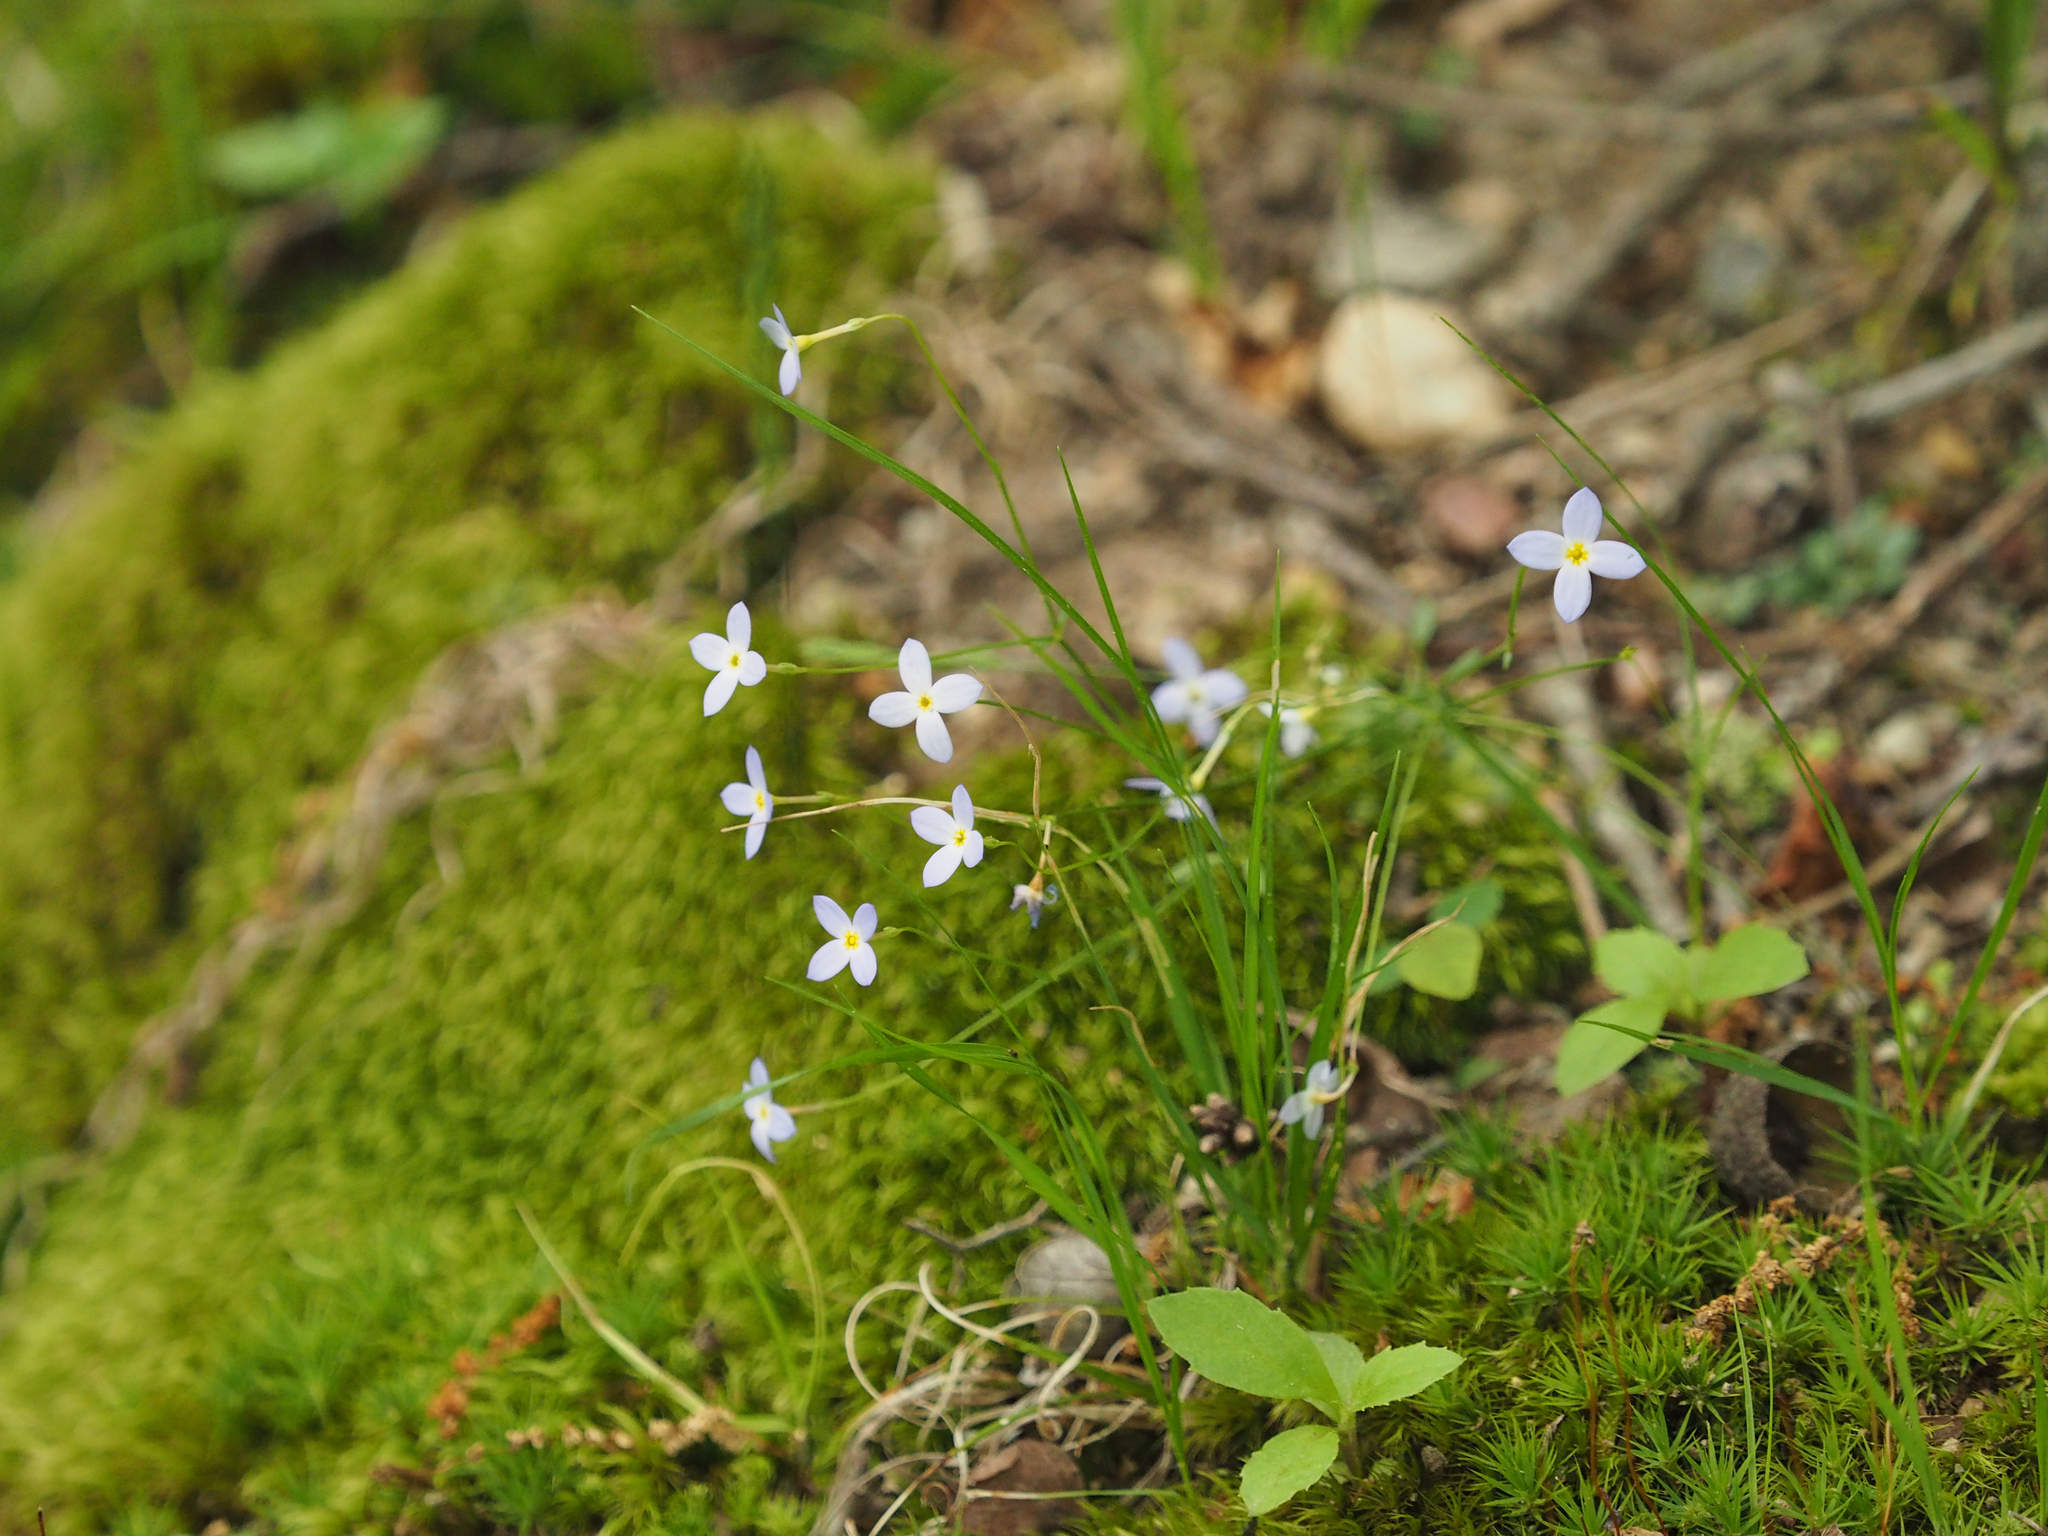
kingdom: Plantae
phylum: Tracheophyta
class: Magnoliopsida
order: Gentianales
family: Rubiaceae
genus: Houstonia
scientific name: Houstonia caerulea
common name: Bluets
